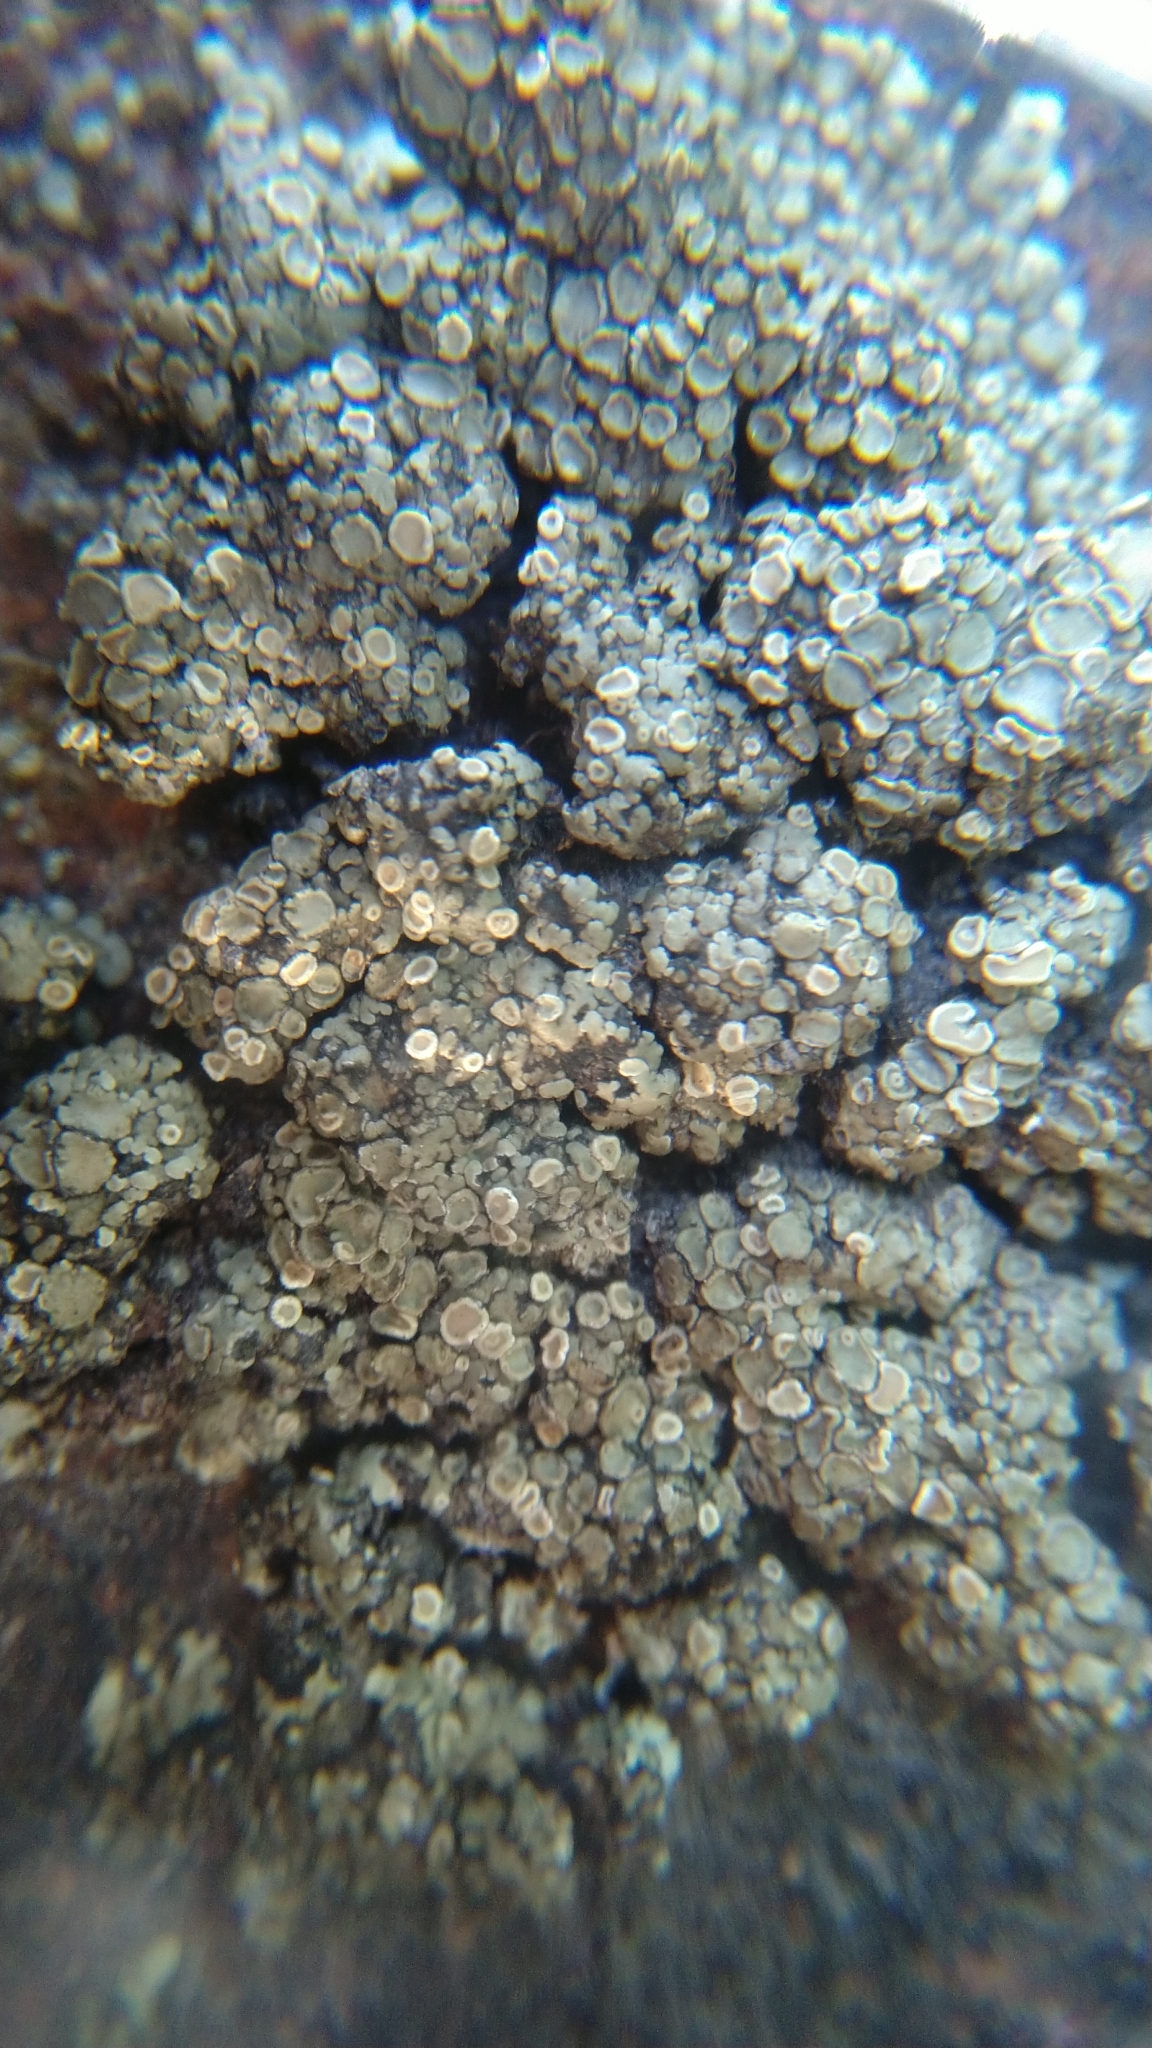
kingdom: Fungi
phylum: Ascomycota
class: Lecanoromycetes
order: Lecanorales
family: Lecanoraceae
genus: Protoparmeliopsis
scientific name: Protoparmeliopsis muralis
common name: Stonewall rim lichen
